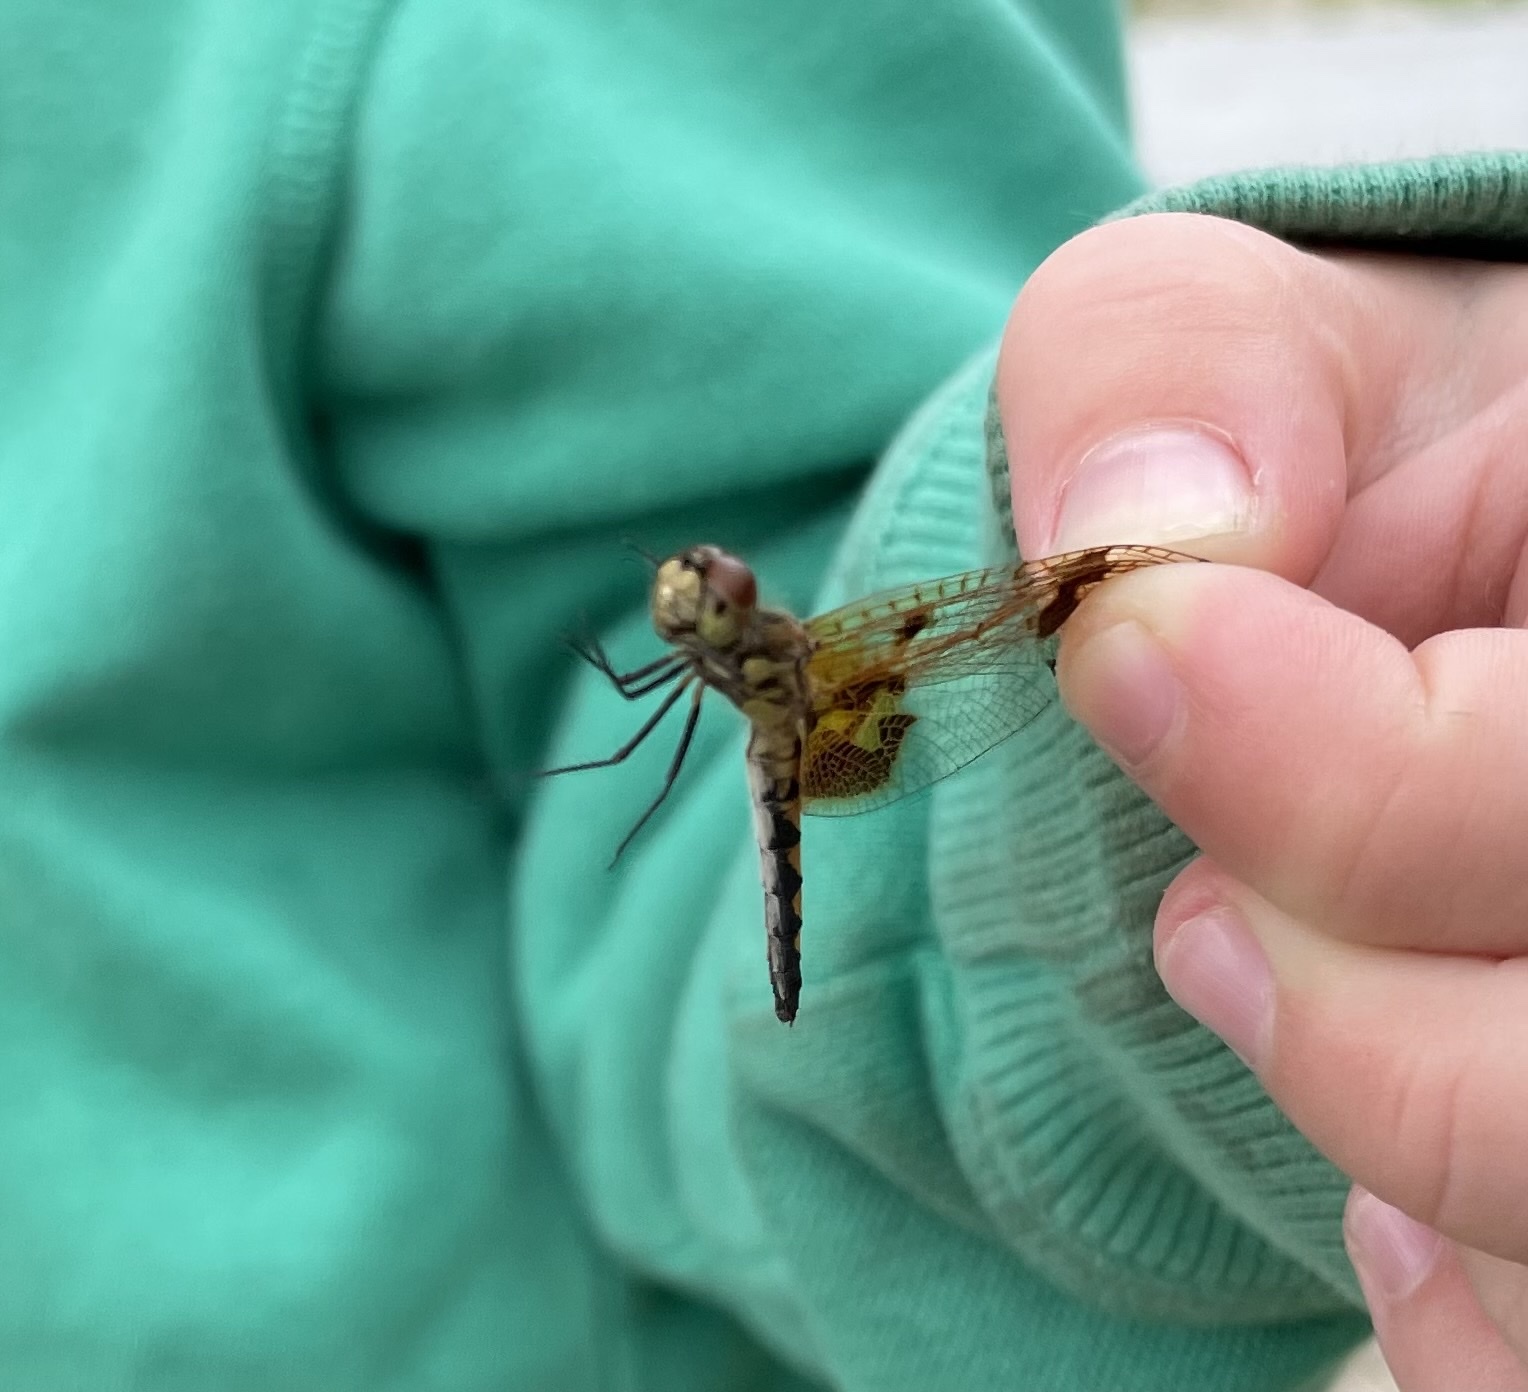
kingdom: Animalia
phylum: Arthropoda
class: Insecta
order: Odonata
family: Libellulidae
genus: Celithemis
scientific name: Celithemis elisa
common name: Calico pennant
